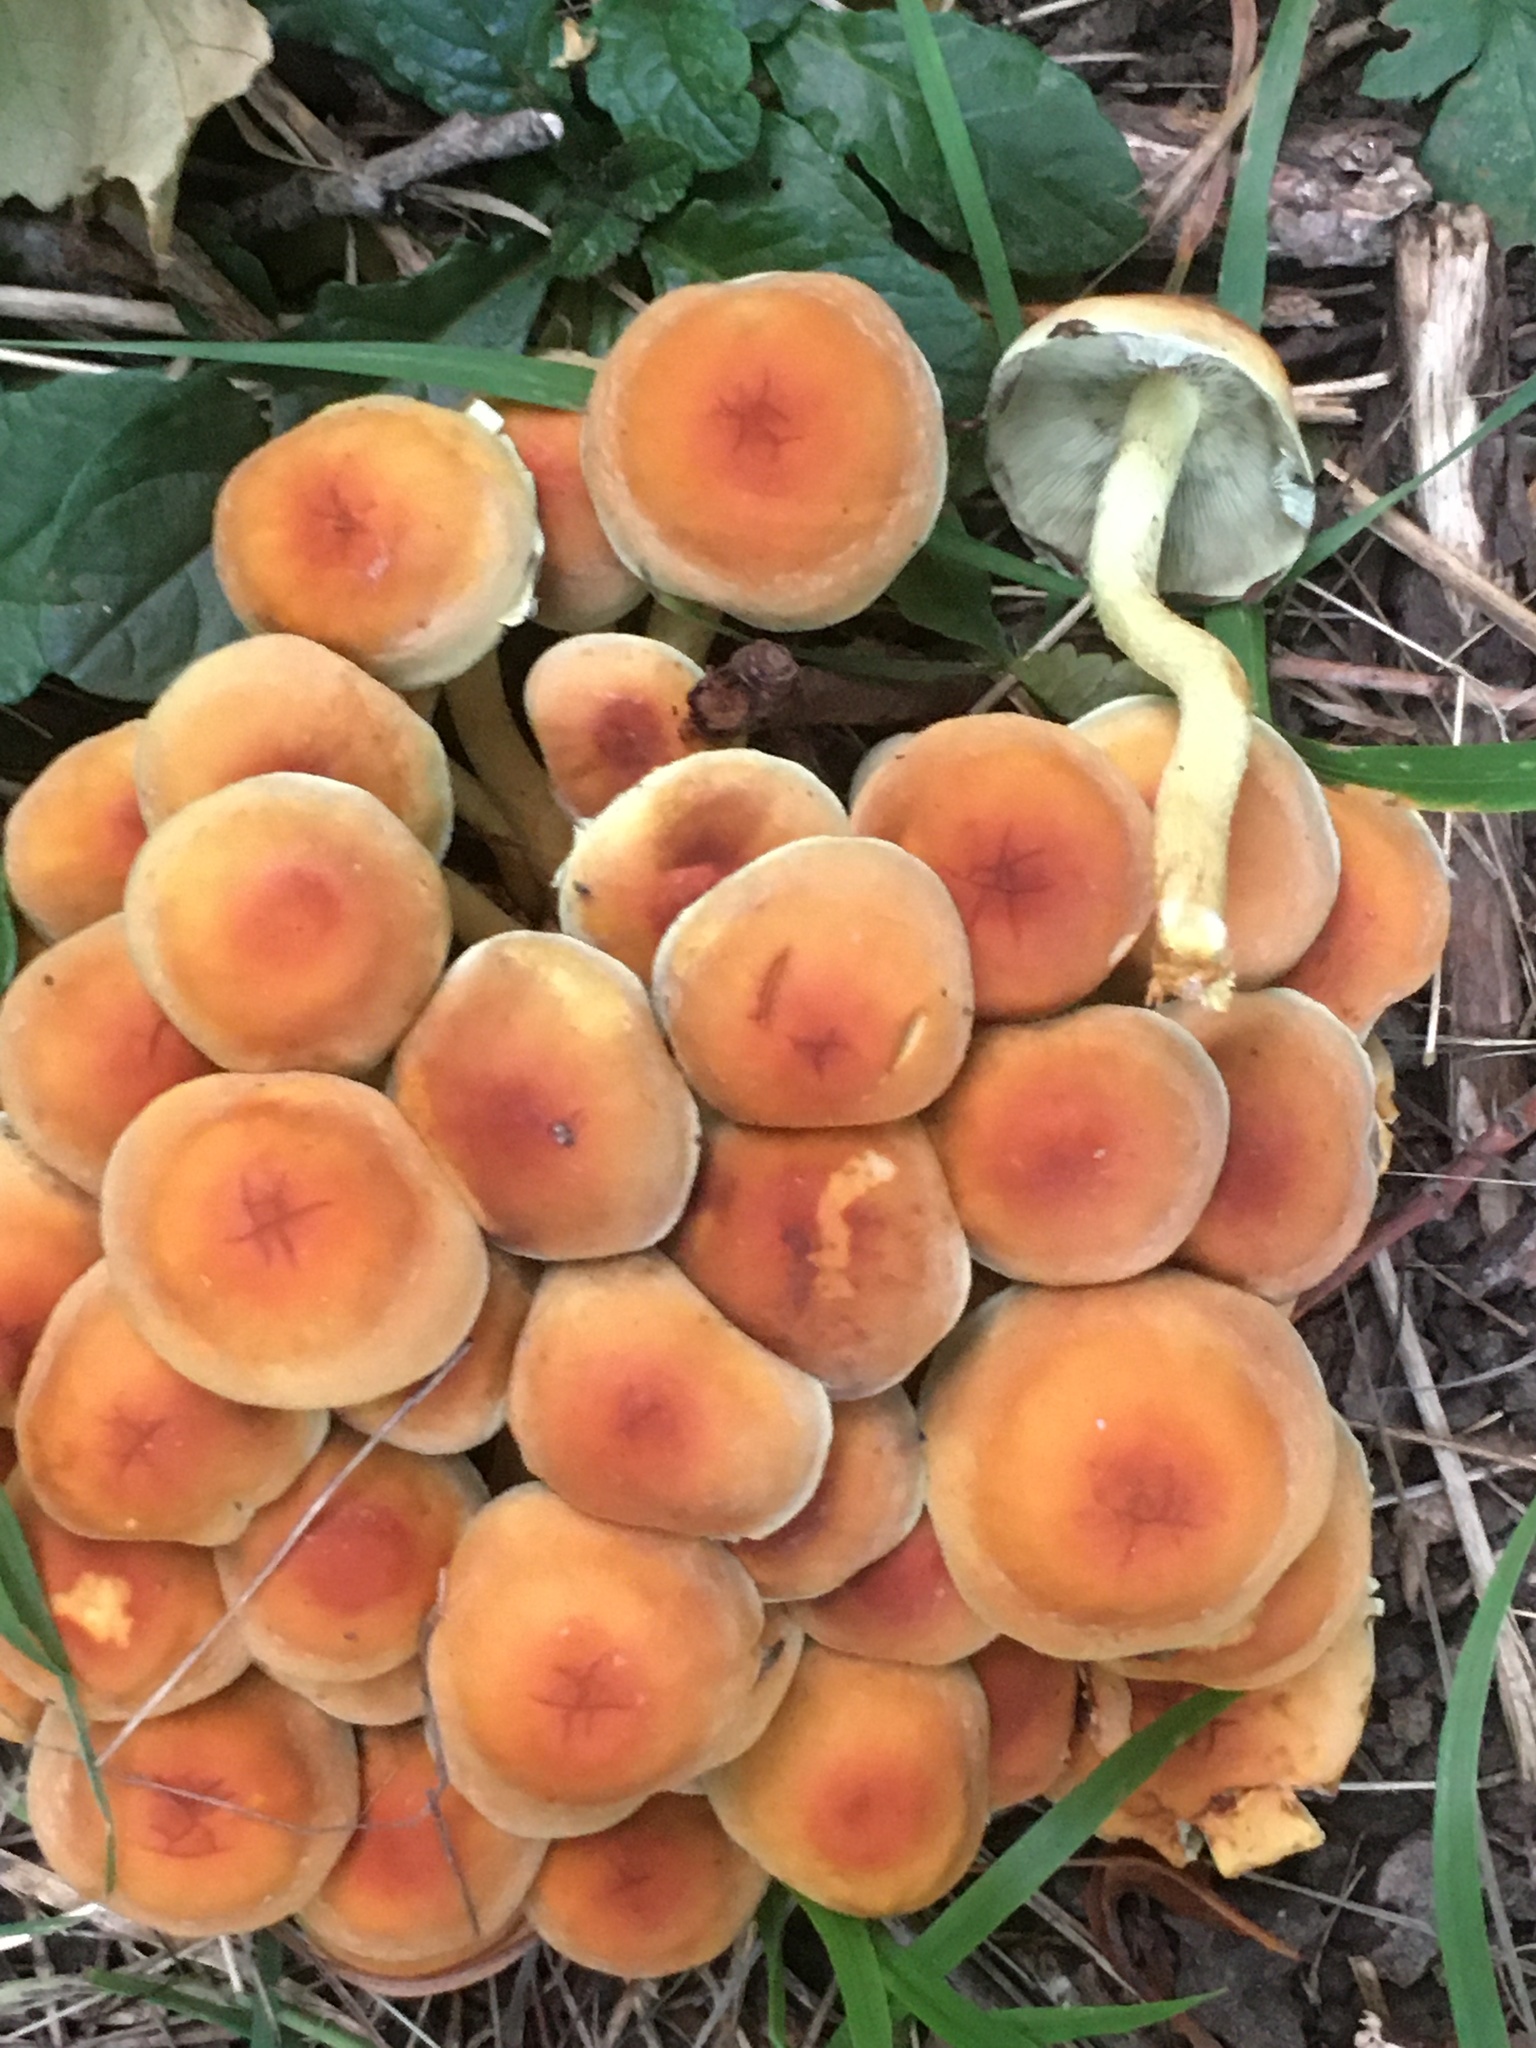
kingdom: Fungi
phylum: Basidiomycota
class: Agaricomycetes
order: Agaricales
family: Strophariaceae
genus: Hypholoma
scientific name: Hypholoma fasciculare
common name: Sulphur tuft
